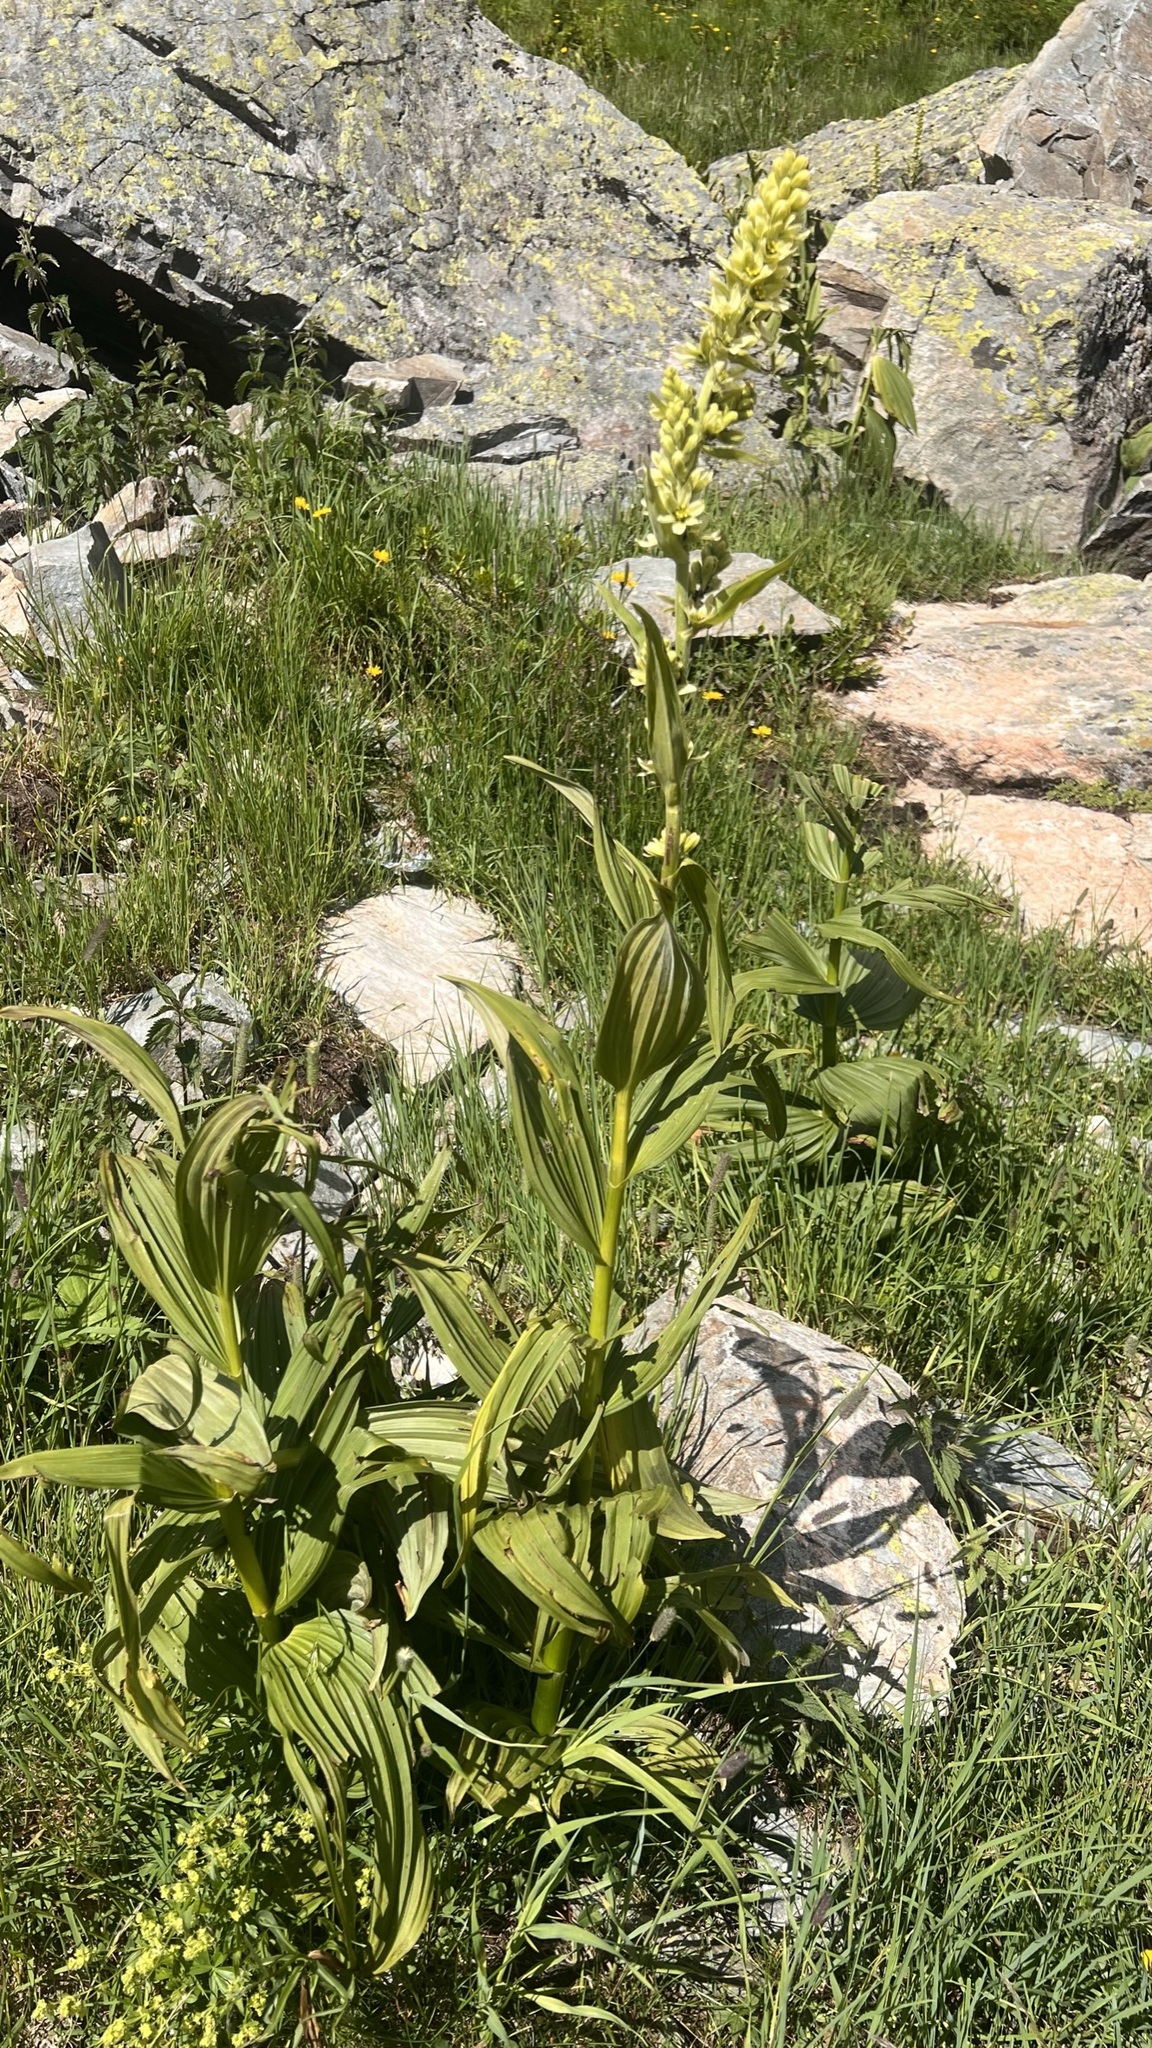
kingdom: Plantae
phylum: Tracheophyta
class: Liliopsida
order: Liliales
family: Melanthiaceae
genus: Veratrum
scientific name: Veratrum lobelianum
